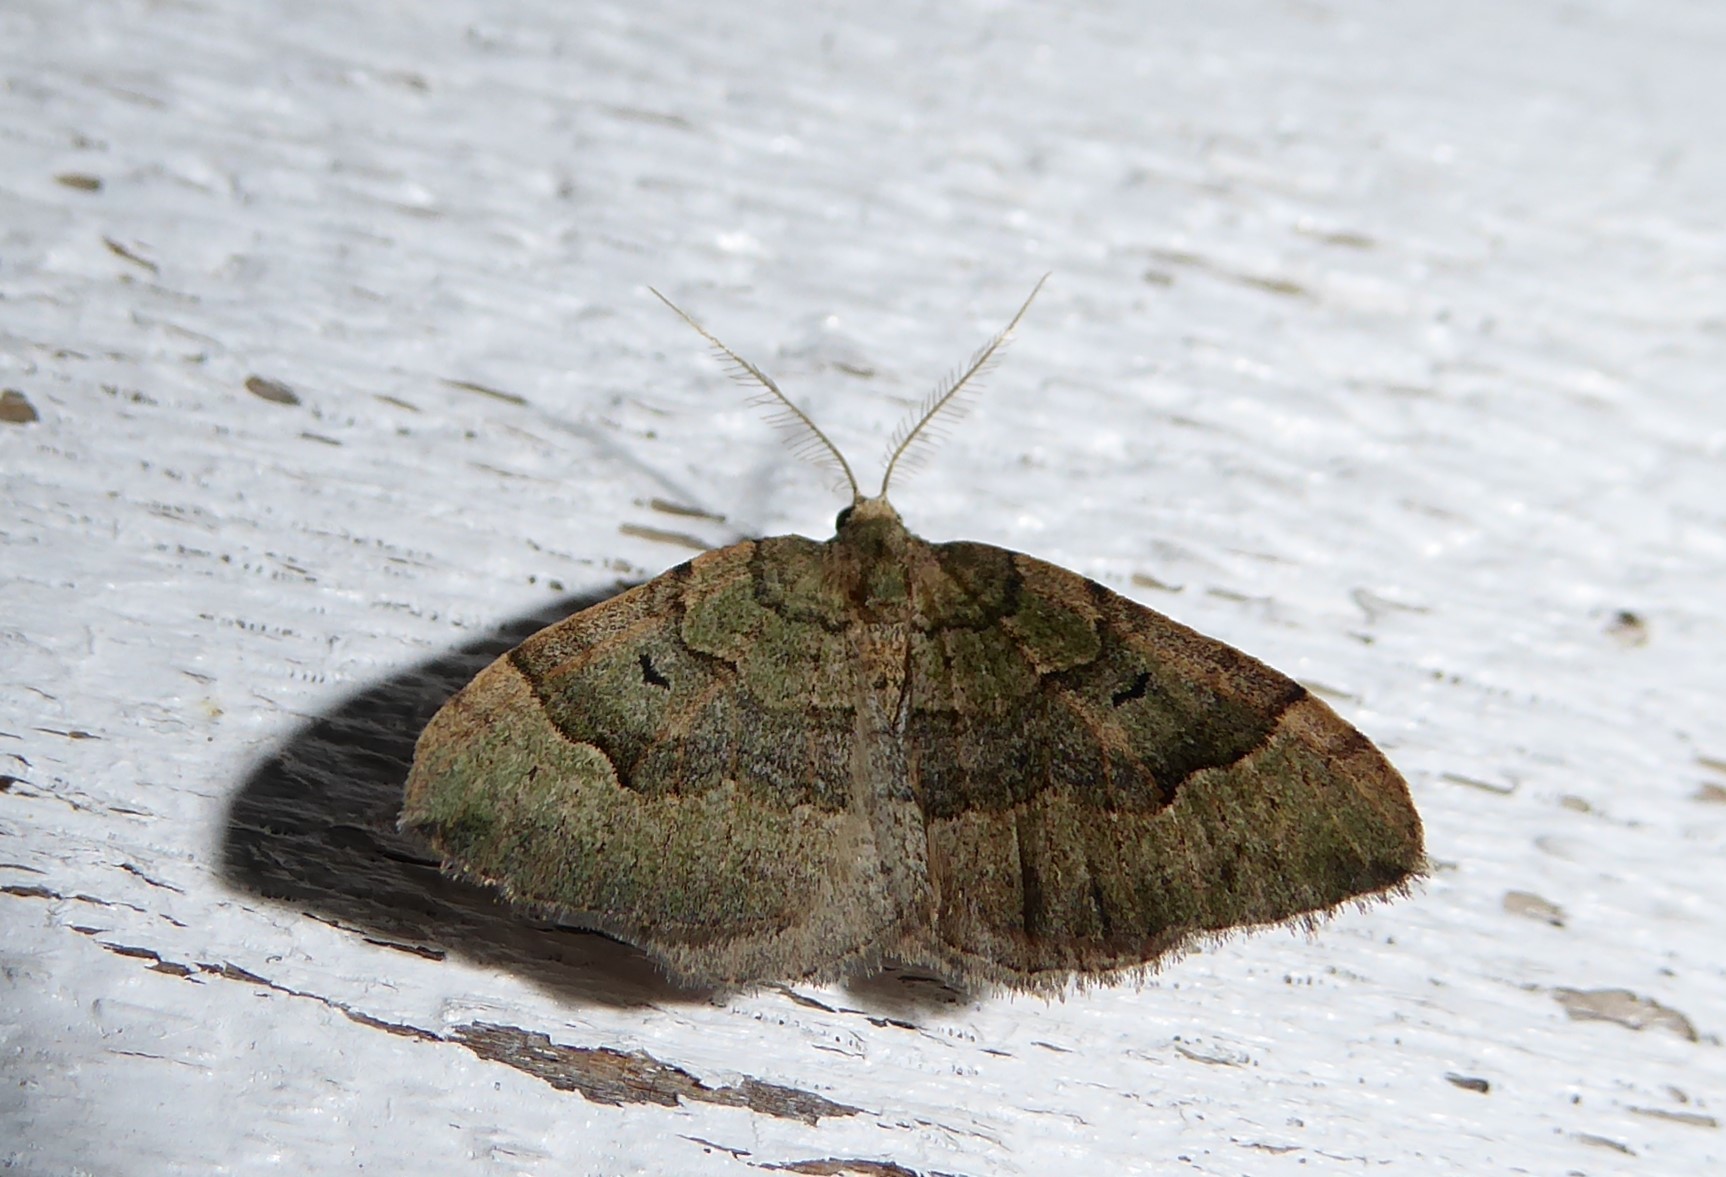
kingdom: Animalia
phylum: Arthropoda
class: Insecta
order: Lepidoptera
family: Geometridae
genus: Epyaxa
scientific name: Epyaxa rosearia
